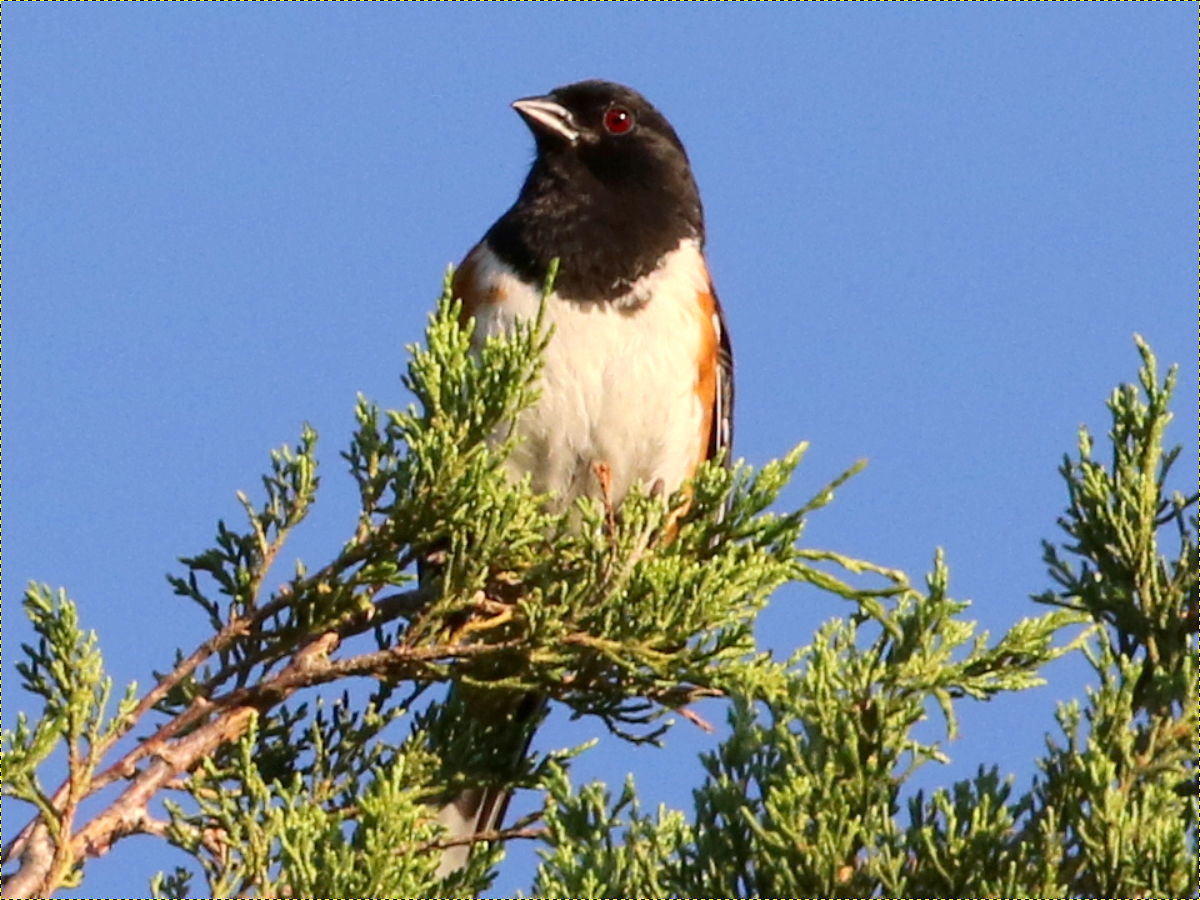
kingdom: Animalia
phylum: Chordata
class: Aves
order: Passeriformes
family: Passerellidae
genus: Pipilo
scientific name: Pipilo erythrophthalmus
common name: Eastern towhee
